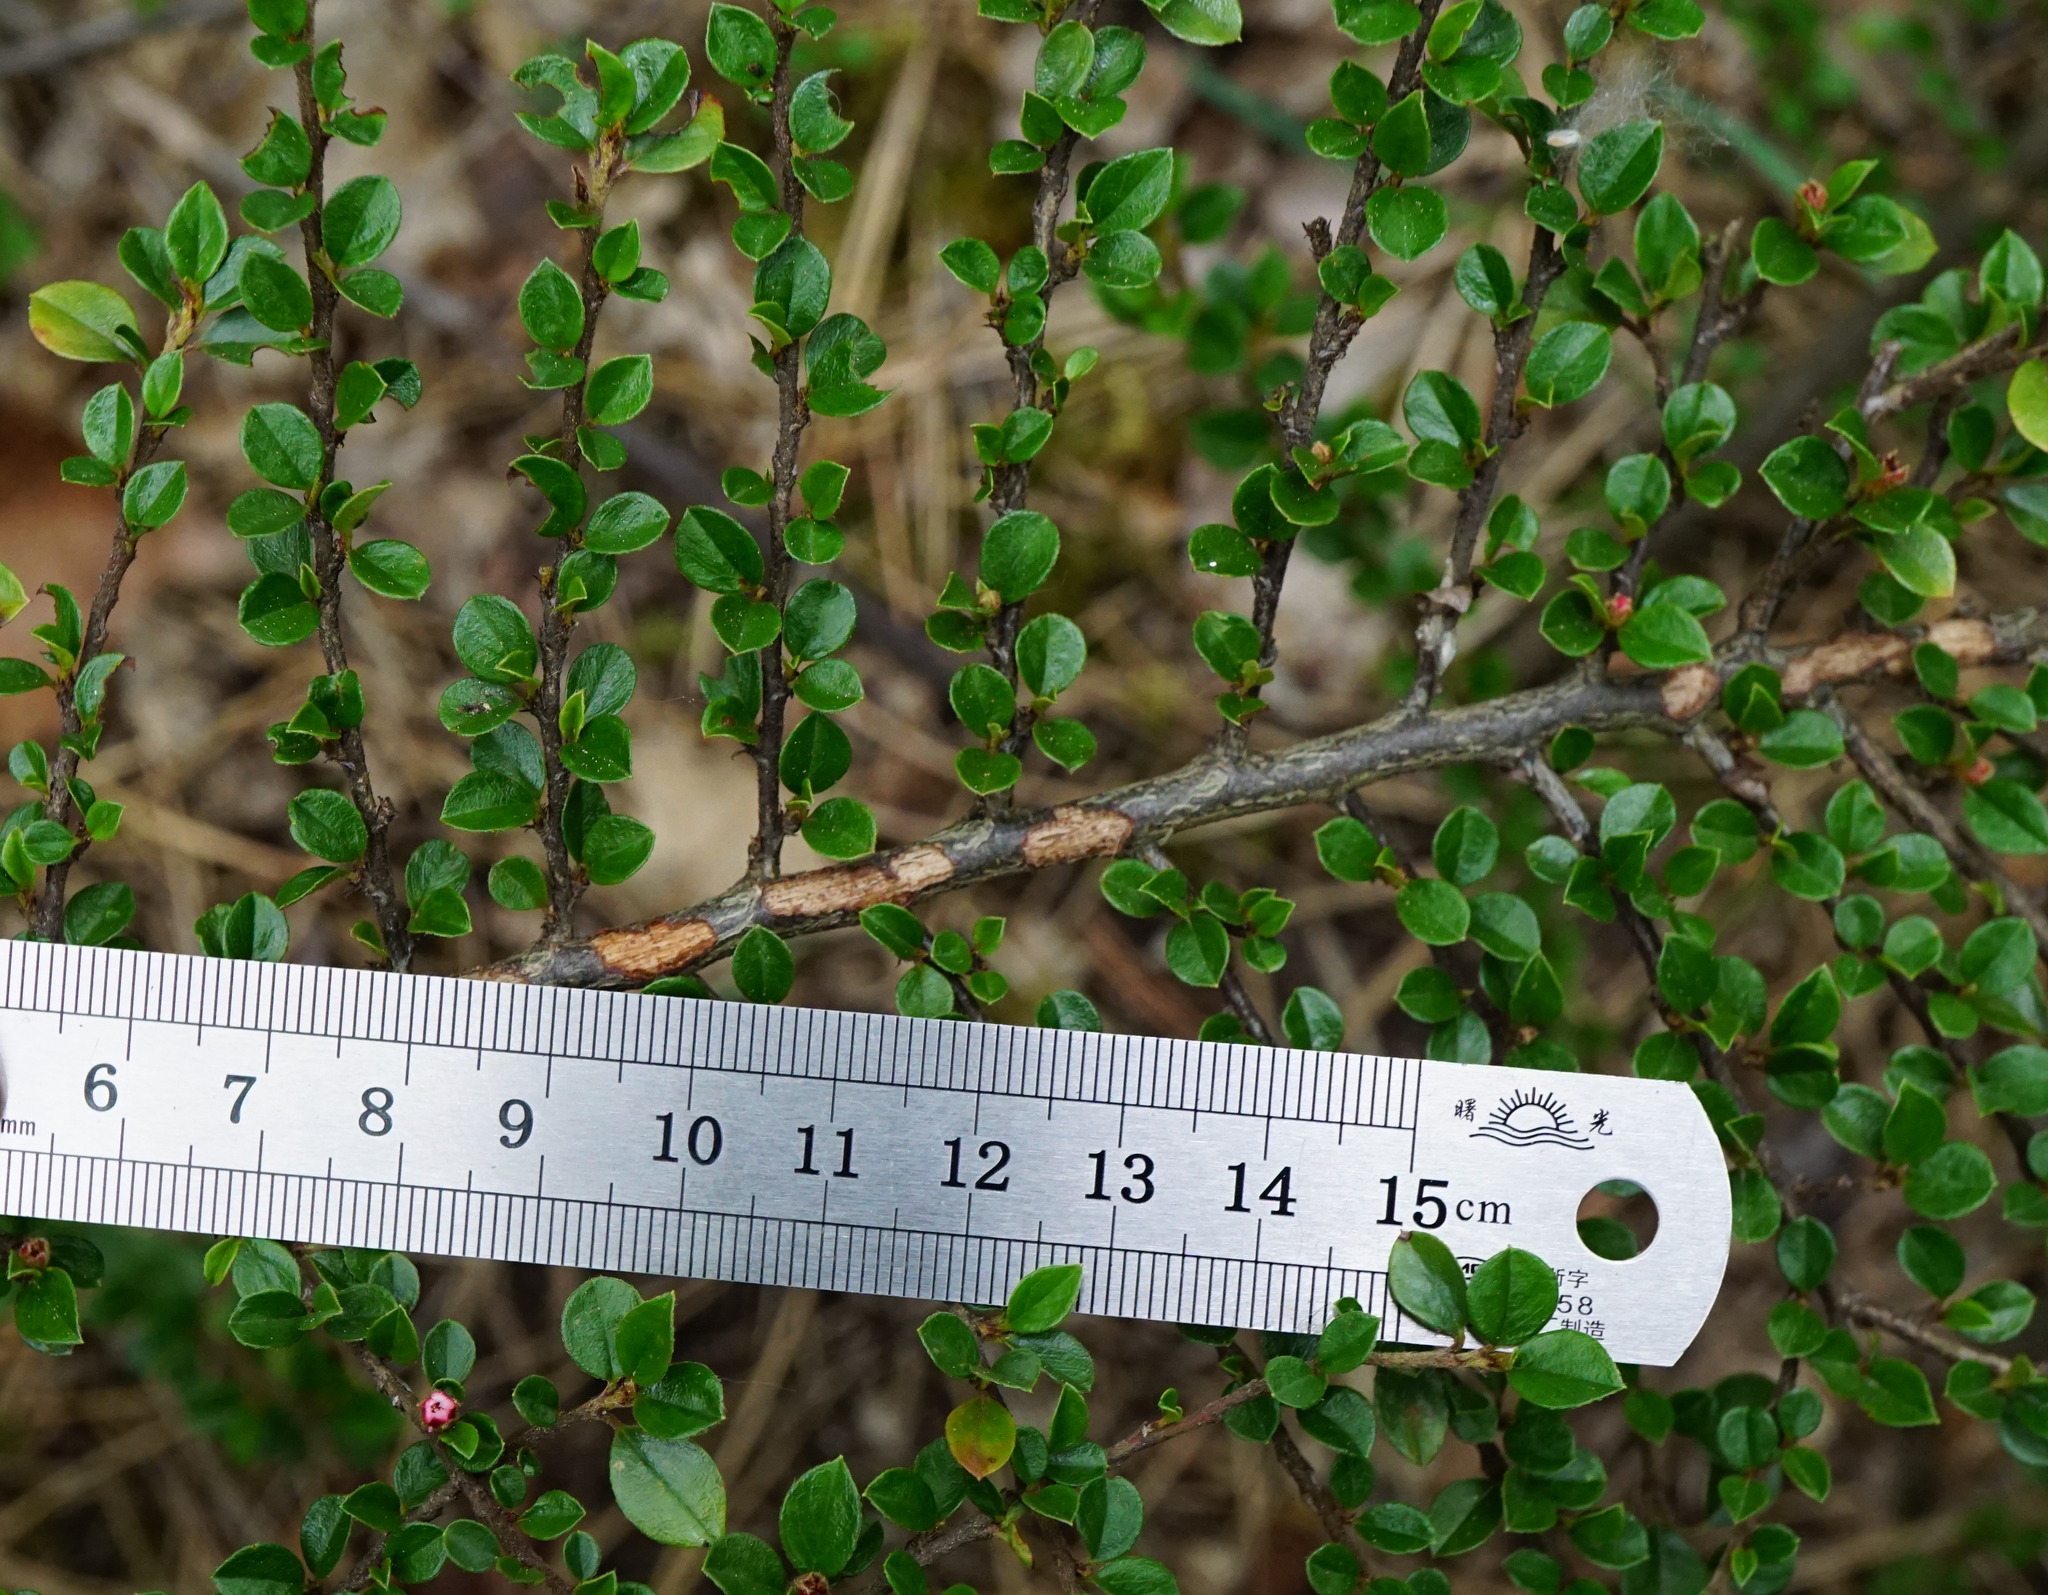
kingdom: Plantae
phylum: Tracheophyta
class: Magnoliopsida
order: Rosales
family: Rosaceae
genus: Cotoneaster
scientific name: Cotoneaster horizontalis
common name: Wall cotoneaster
